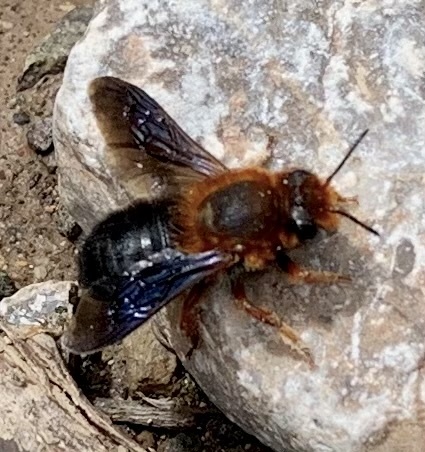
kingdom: Animalia
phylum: Arthropoda
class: Insecta
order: Hymenoptera
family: Megachilidae
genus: Megachile
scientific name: Megachile sicula
